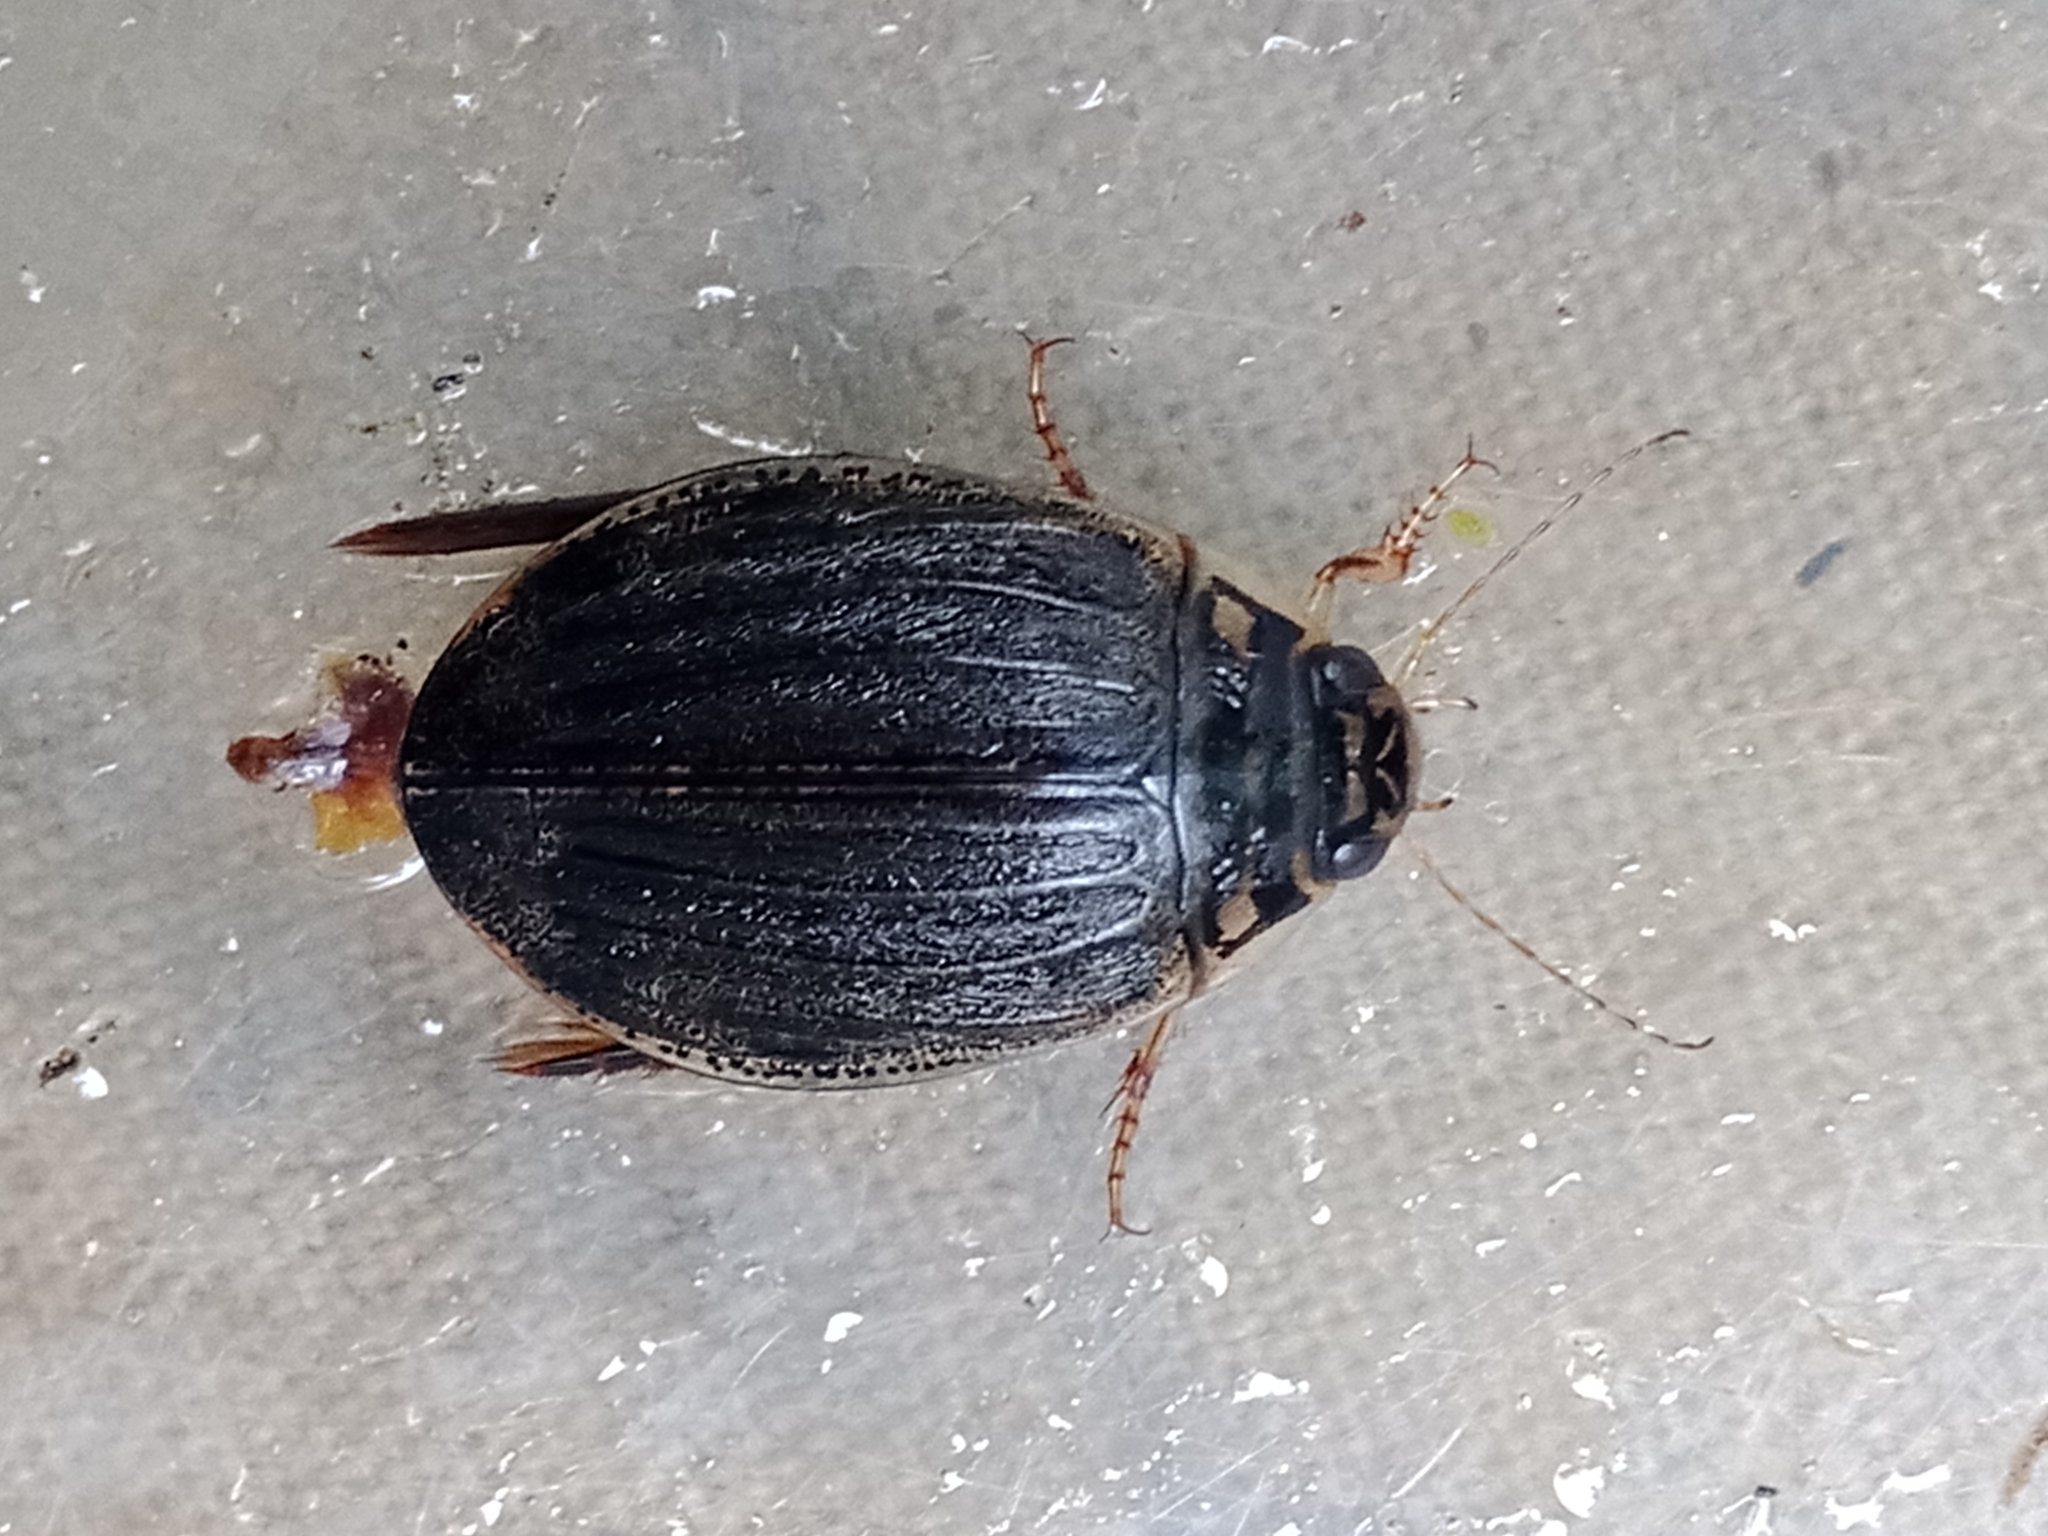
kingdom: Animalia
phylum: Arthropoda
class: Insecta
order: Coleoptera
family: Dytiscidae
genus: Acilius
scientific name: Acilius sulcatus
